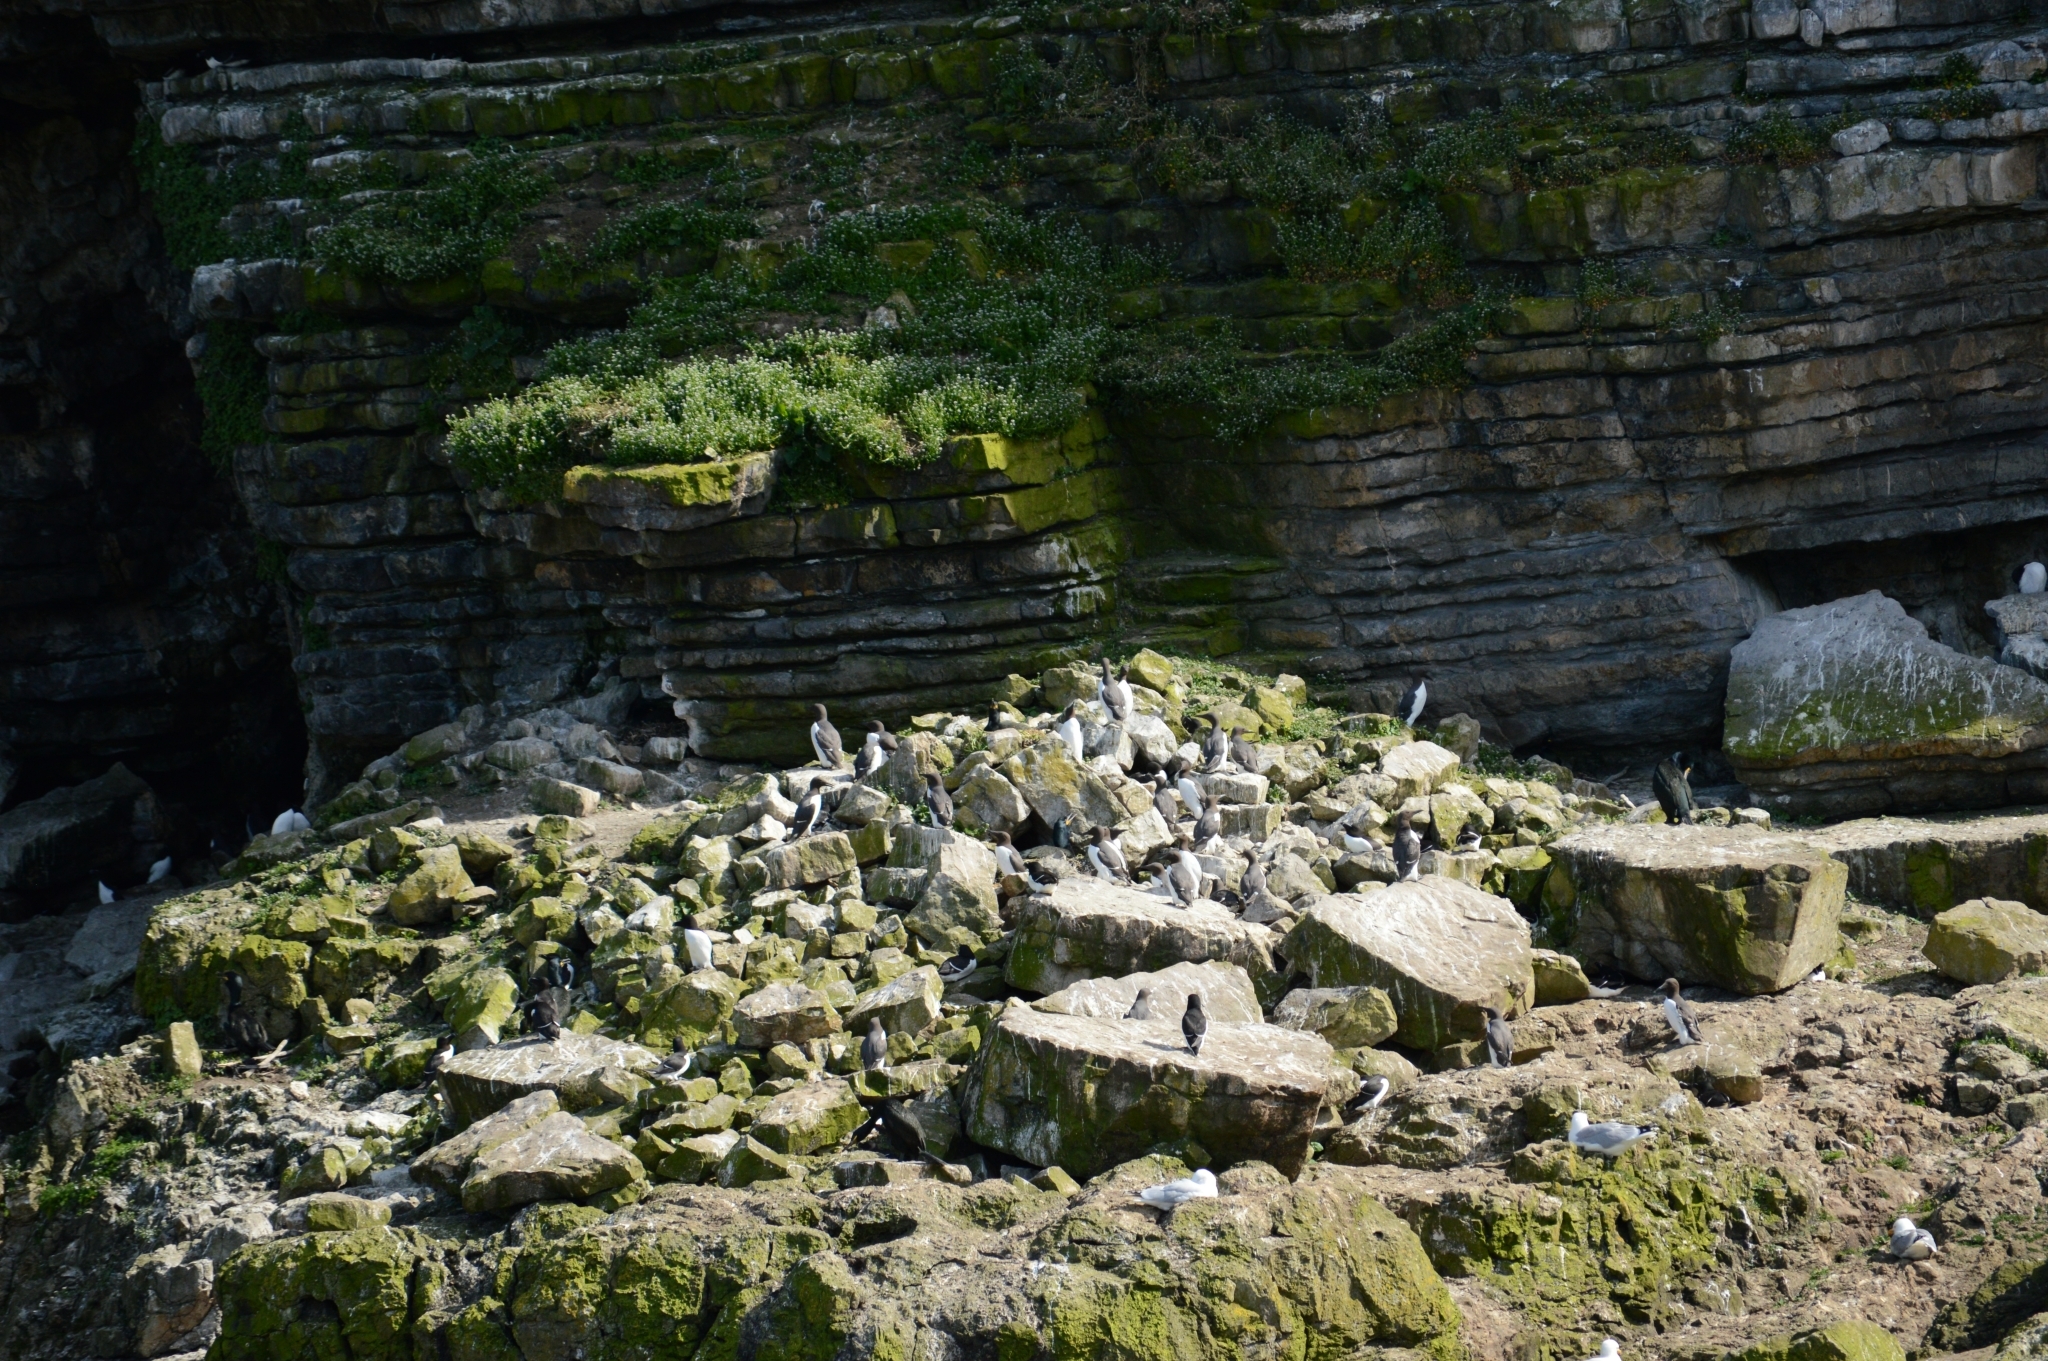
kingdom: Animalia
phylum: Chordata
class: Aves
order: Charadriiformes
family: Alcidae
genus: Uria
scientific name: Uria aalge
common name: Common murre
